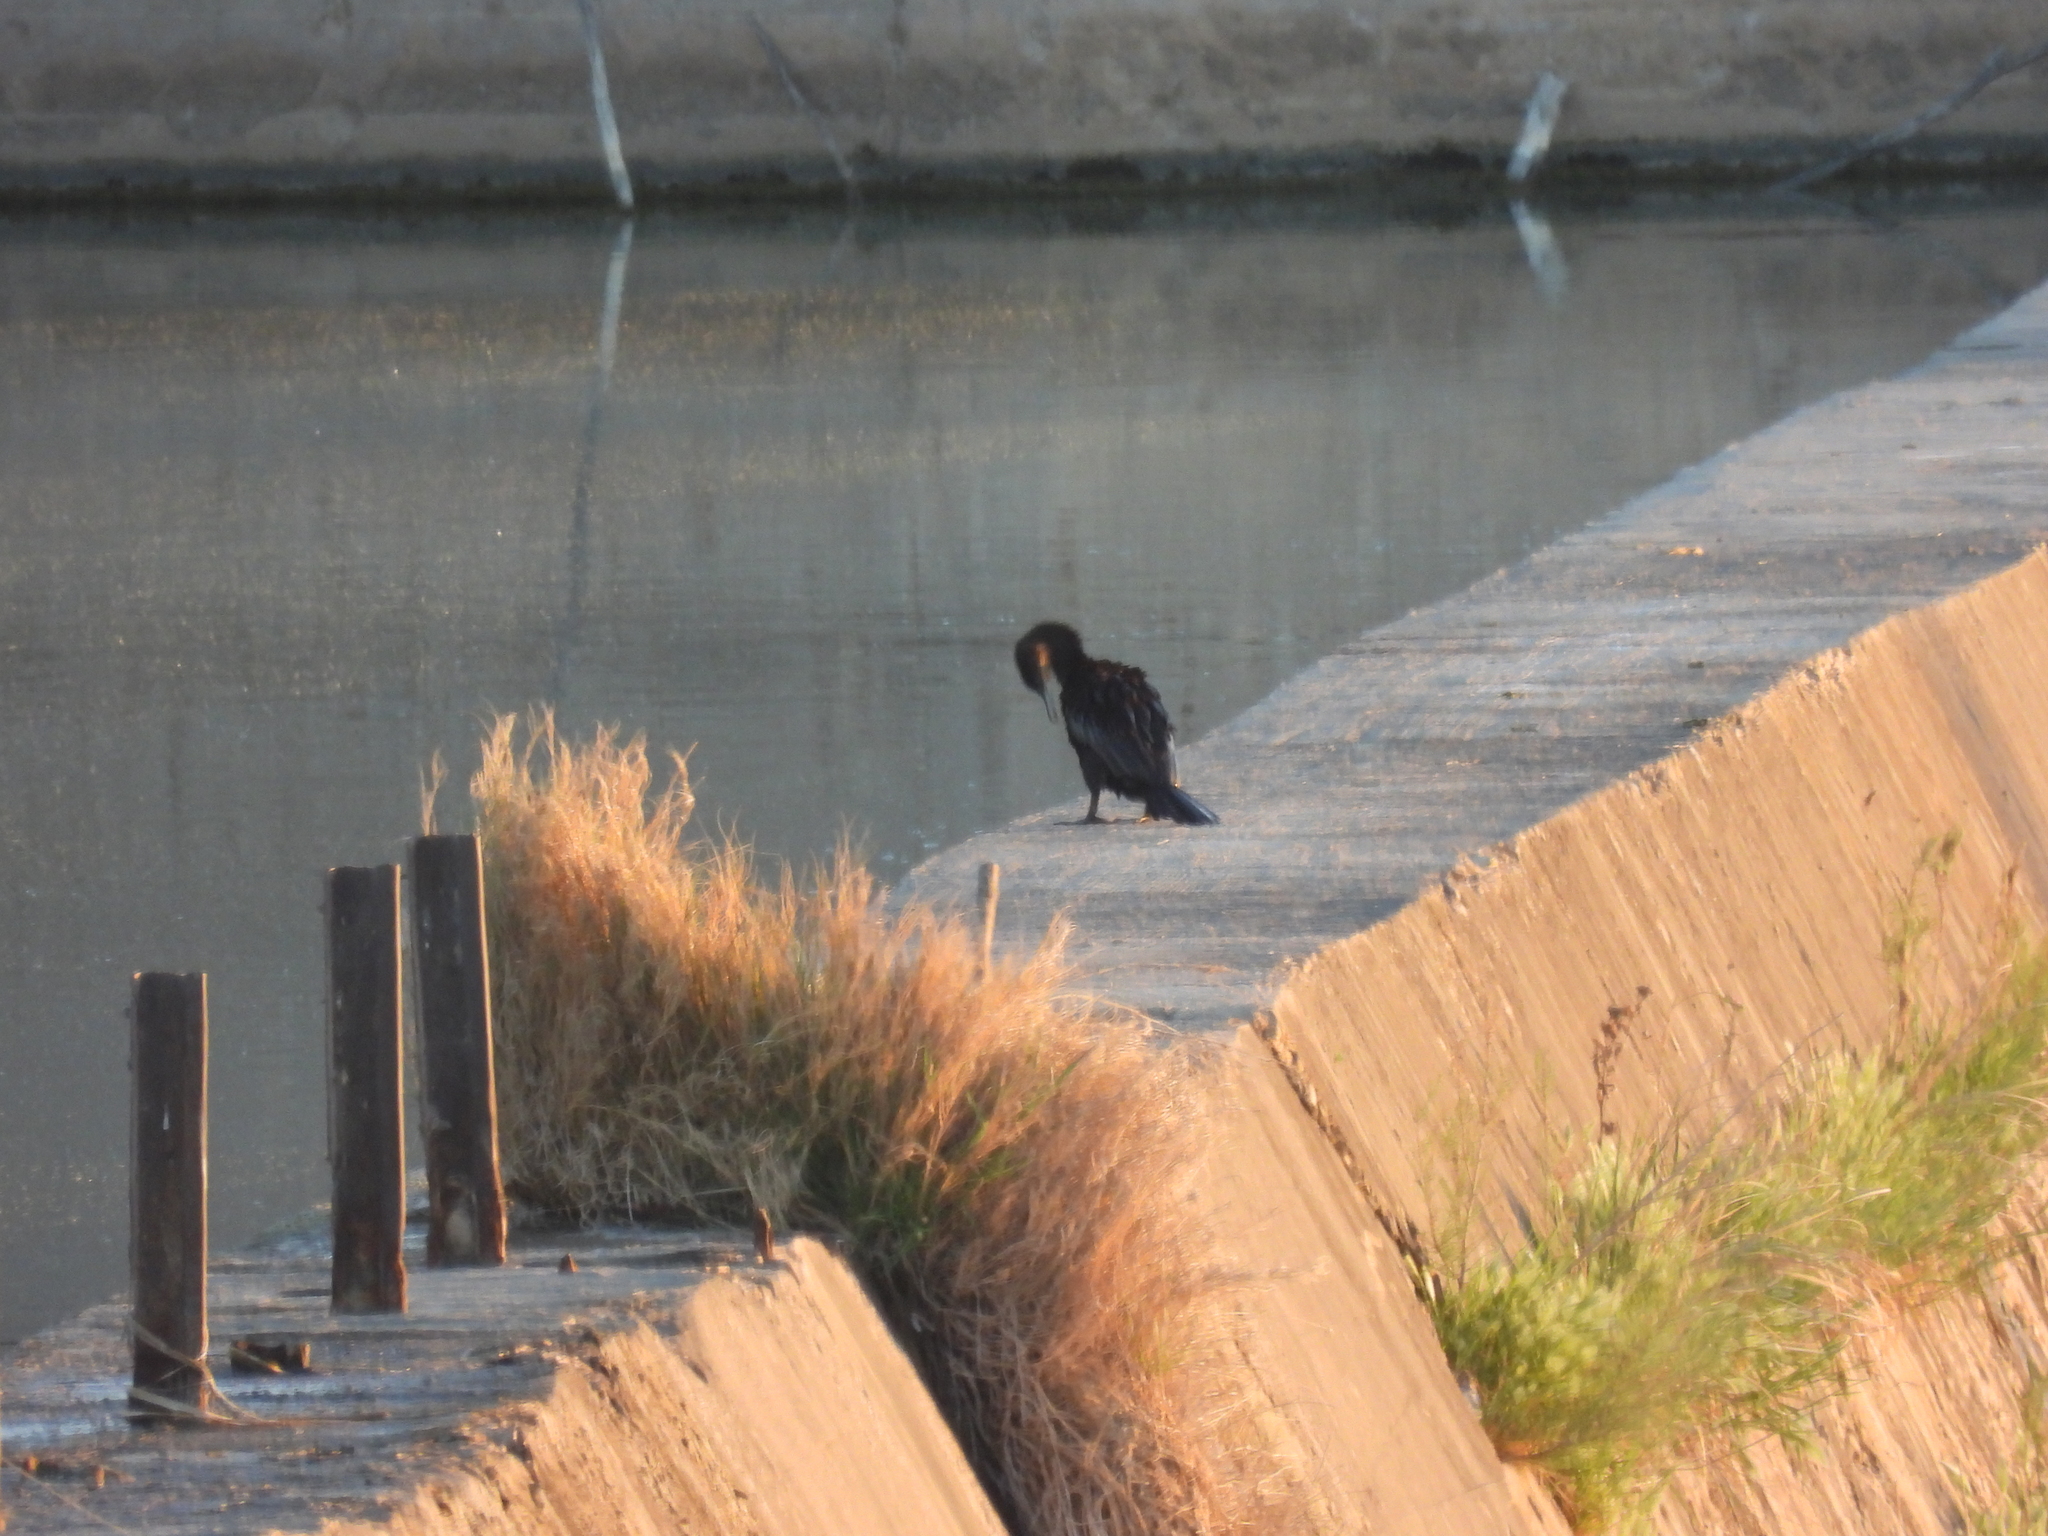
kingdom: Animalia
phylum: Chordata
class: Aves
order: Suliformes
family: Phalacrocoracidae
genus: Phalacrocorax
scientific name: Phalacrocorax brasilianus
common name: Neotropic cormorant
